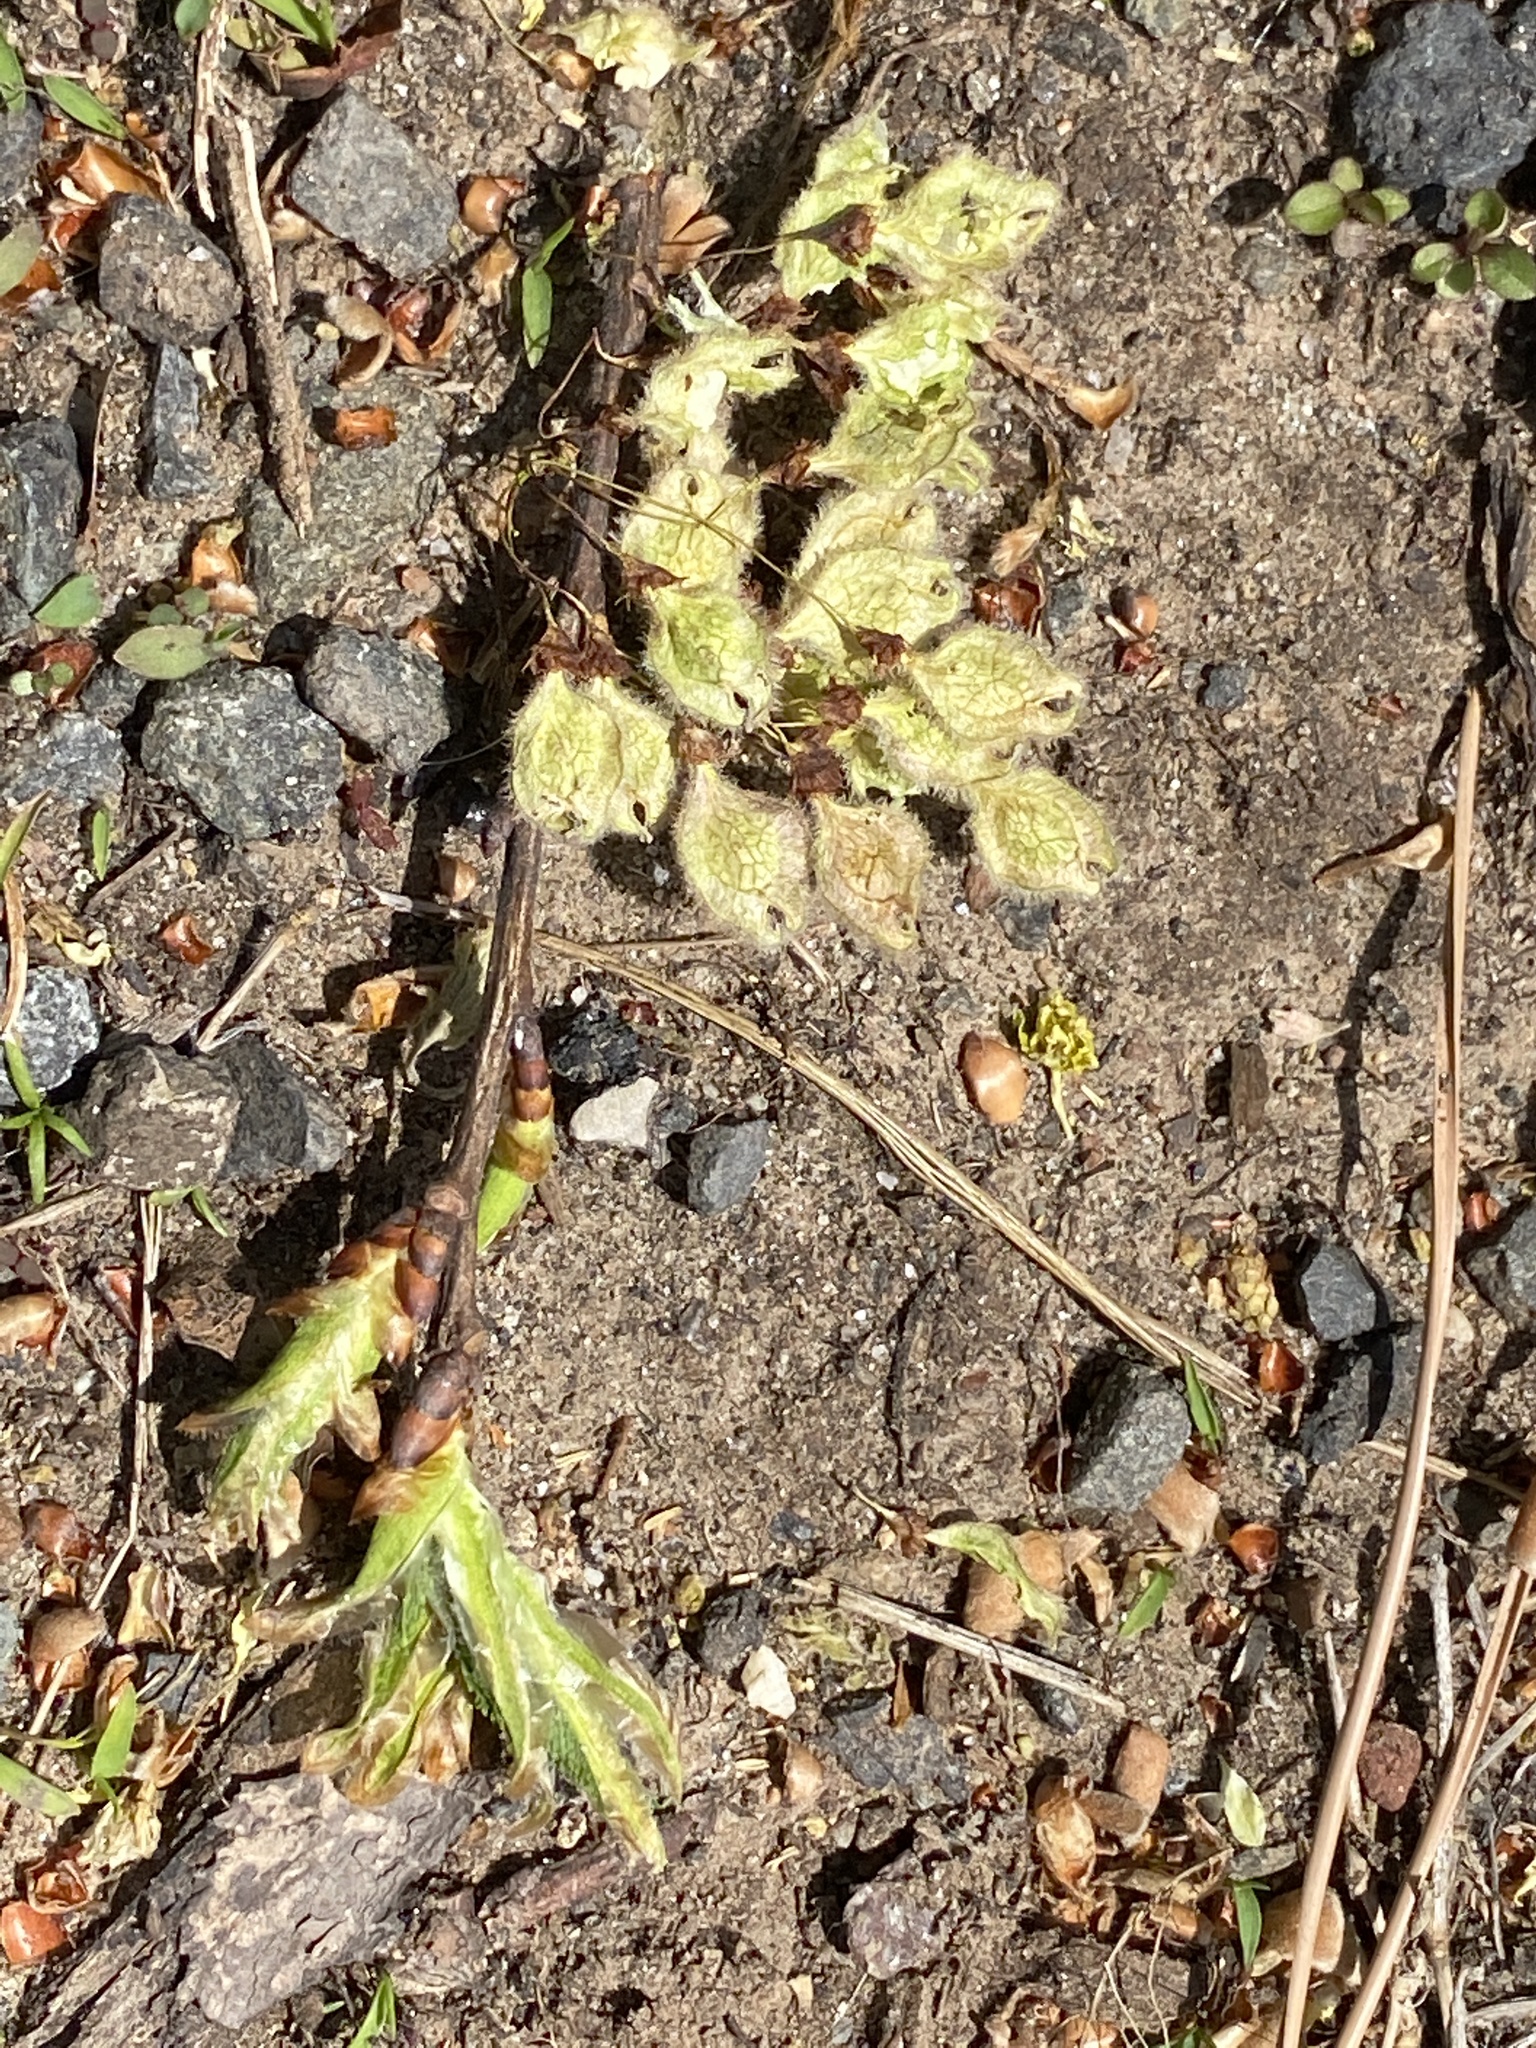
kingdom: Plantae
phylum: Tracheophyta
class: Magnoliopsida
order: Rosales
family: Ulmaceae
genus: Ulmus
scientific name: Ulmus americana
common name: American elm
